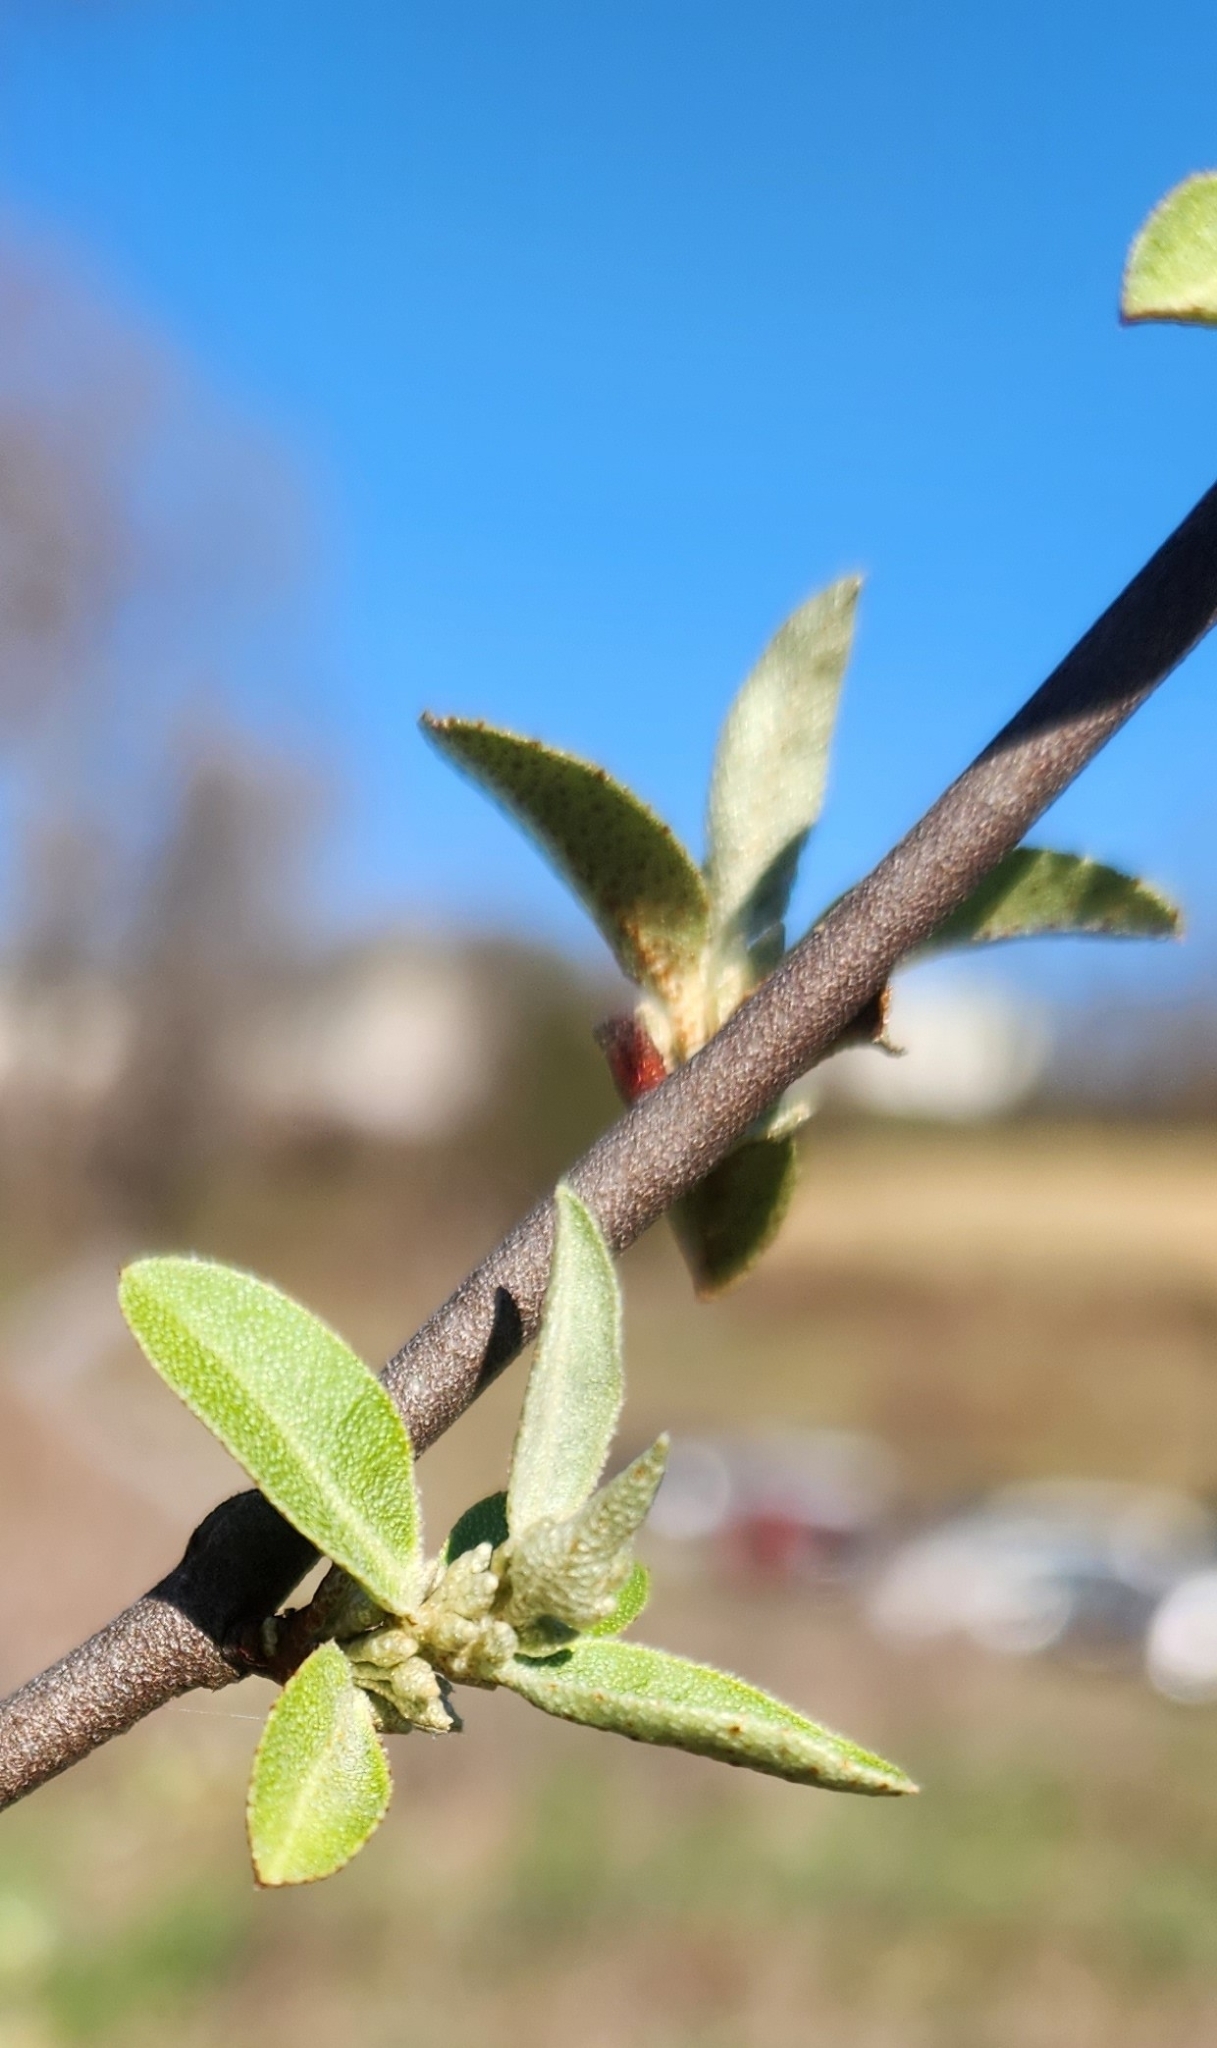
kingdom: Plantae
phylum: Tracheophyta
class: Magnoliopsida
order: Rosales
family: Elaeagnaceae
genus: Elaeagnus
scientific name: Elaeagnus umbellata
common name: Autumn olive
